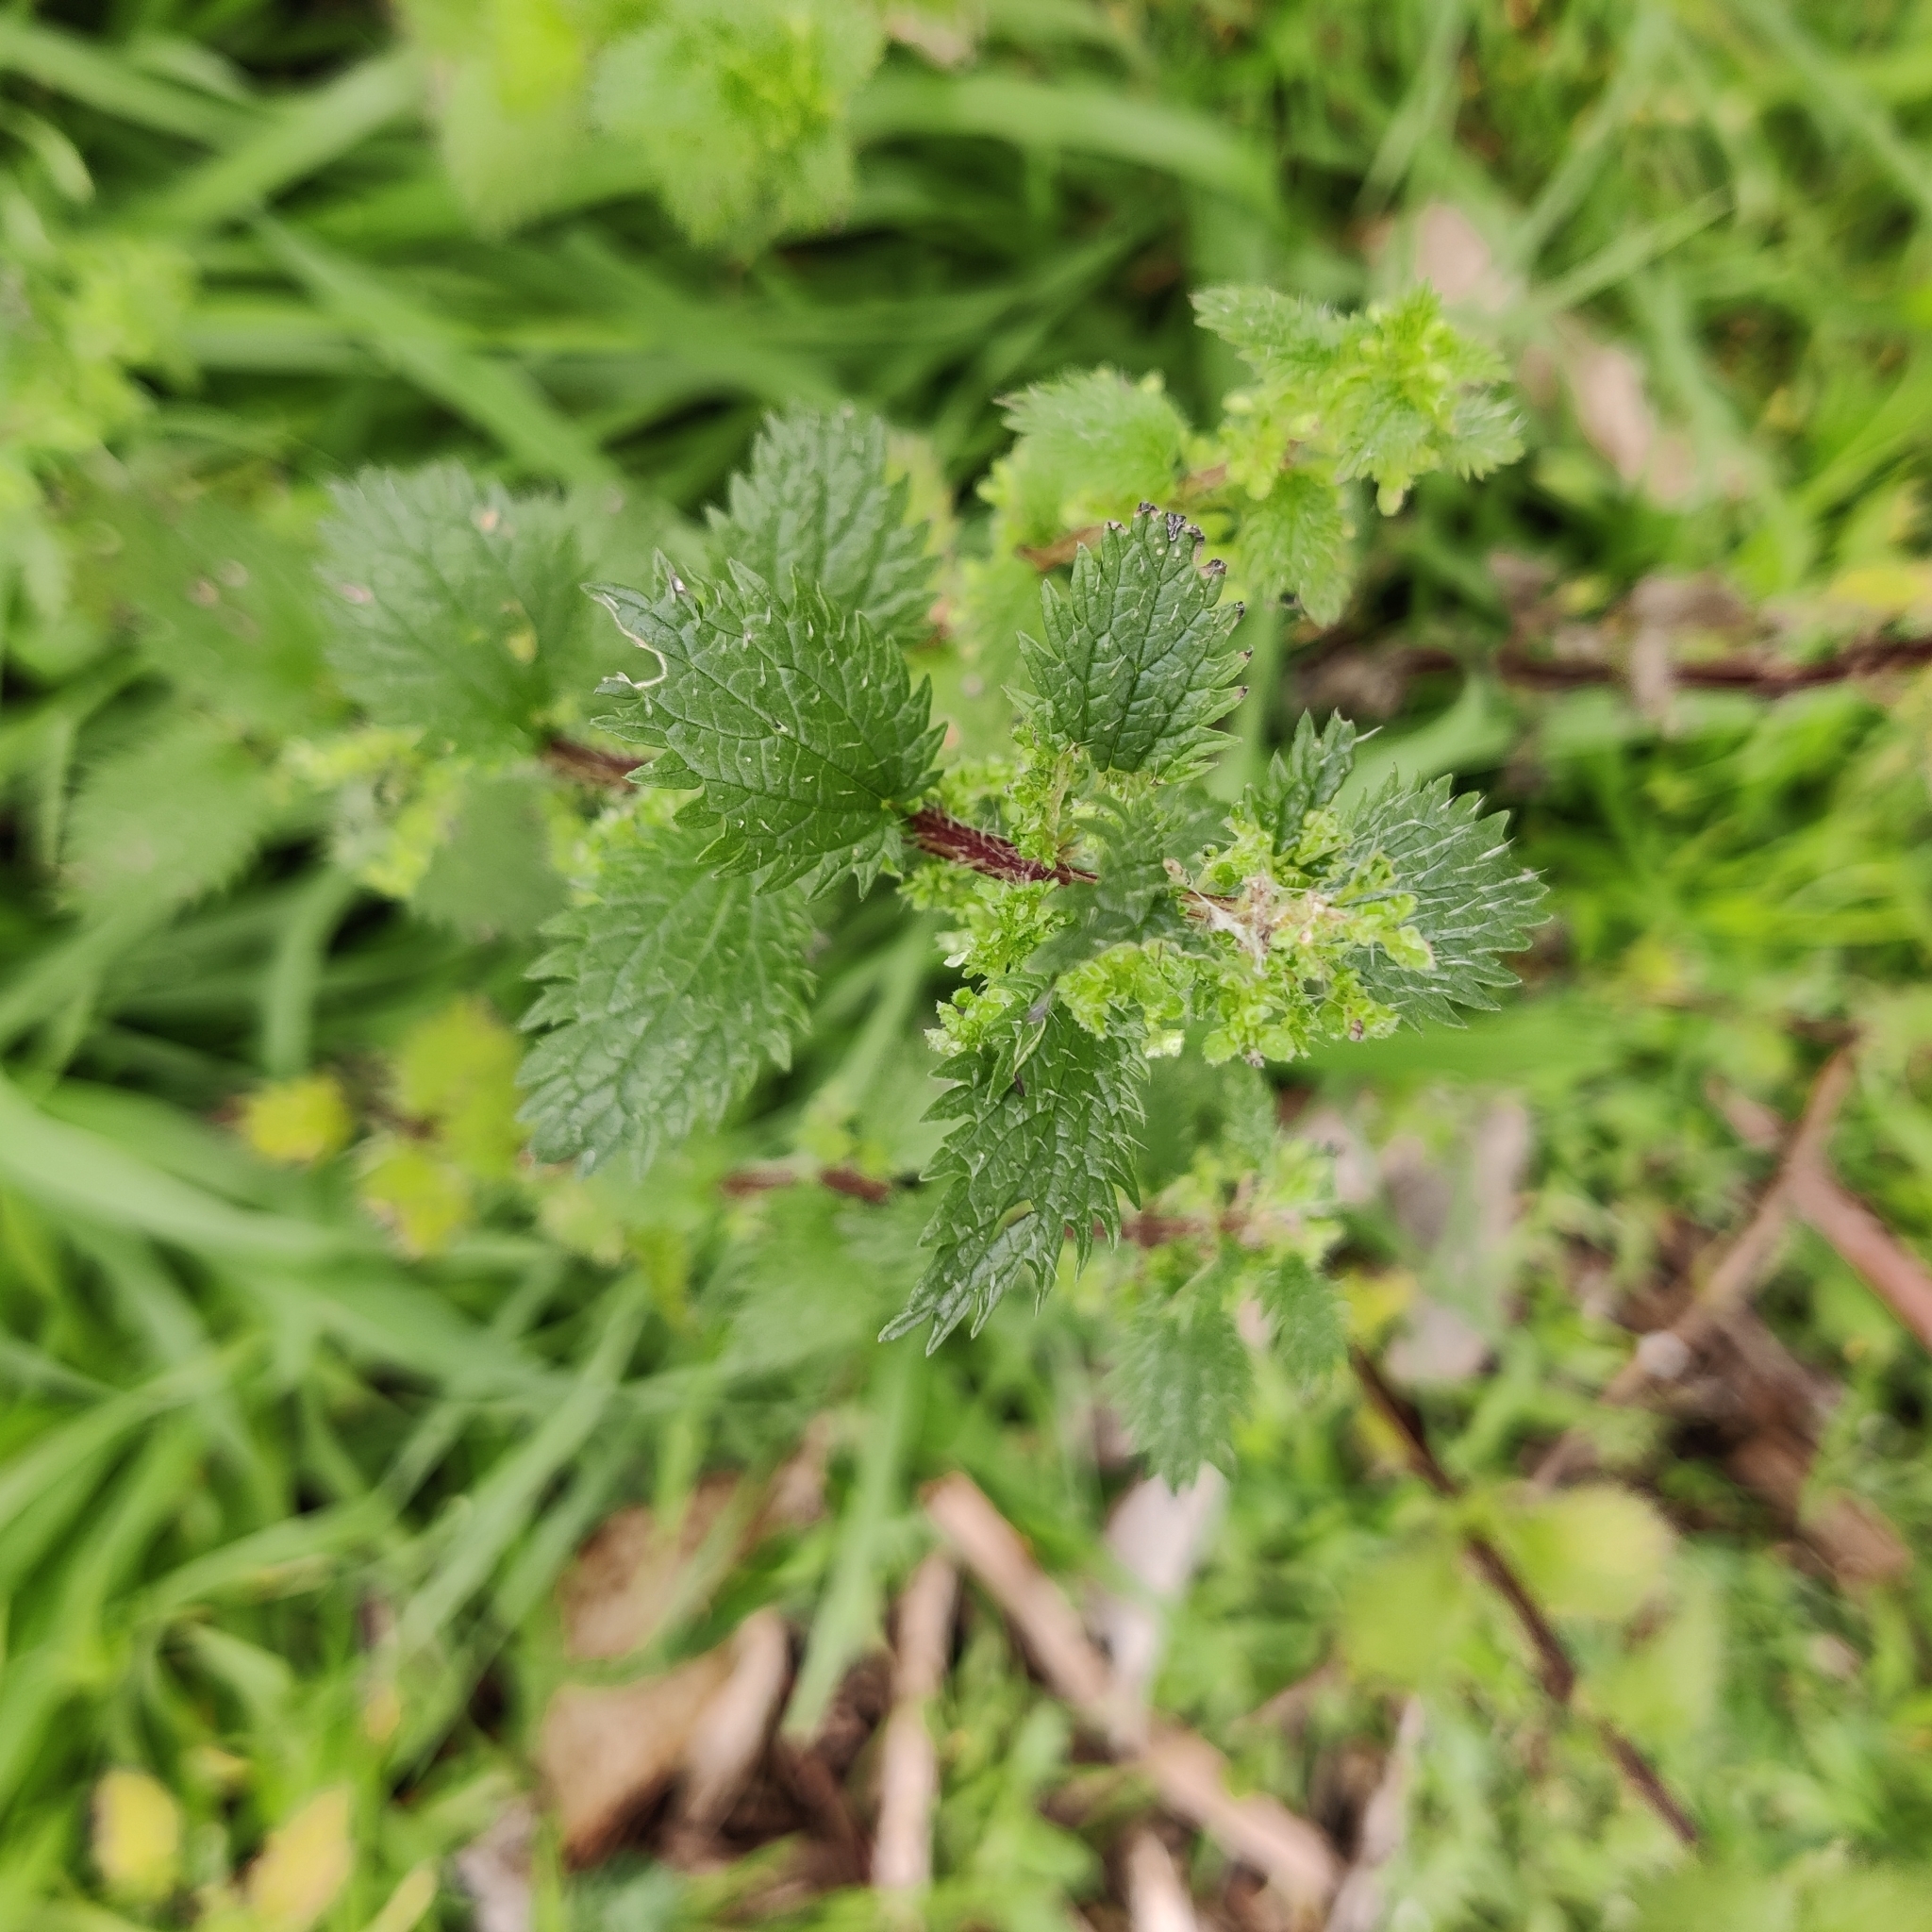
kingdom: Plantae
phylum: Tracheophyta
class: Magnoliopsida
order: Rosales
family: Urticaceae
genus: Urtica
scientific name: Urtica urens
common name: Dwarf nettle
